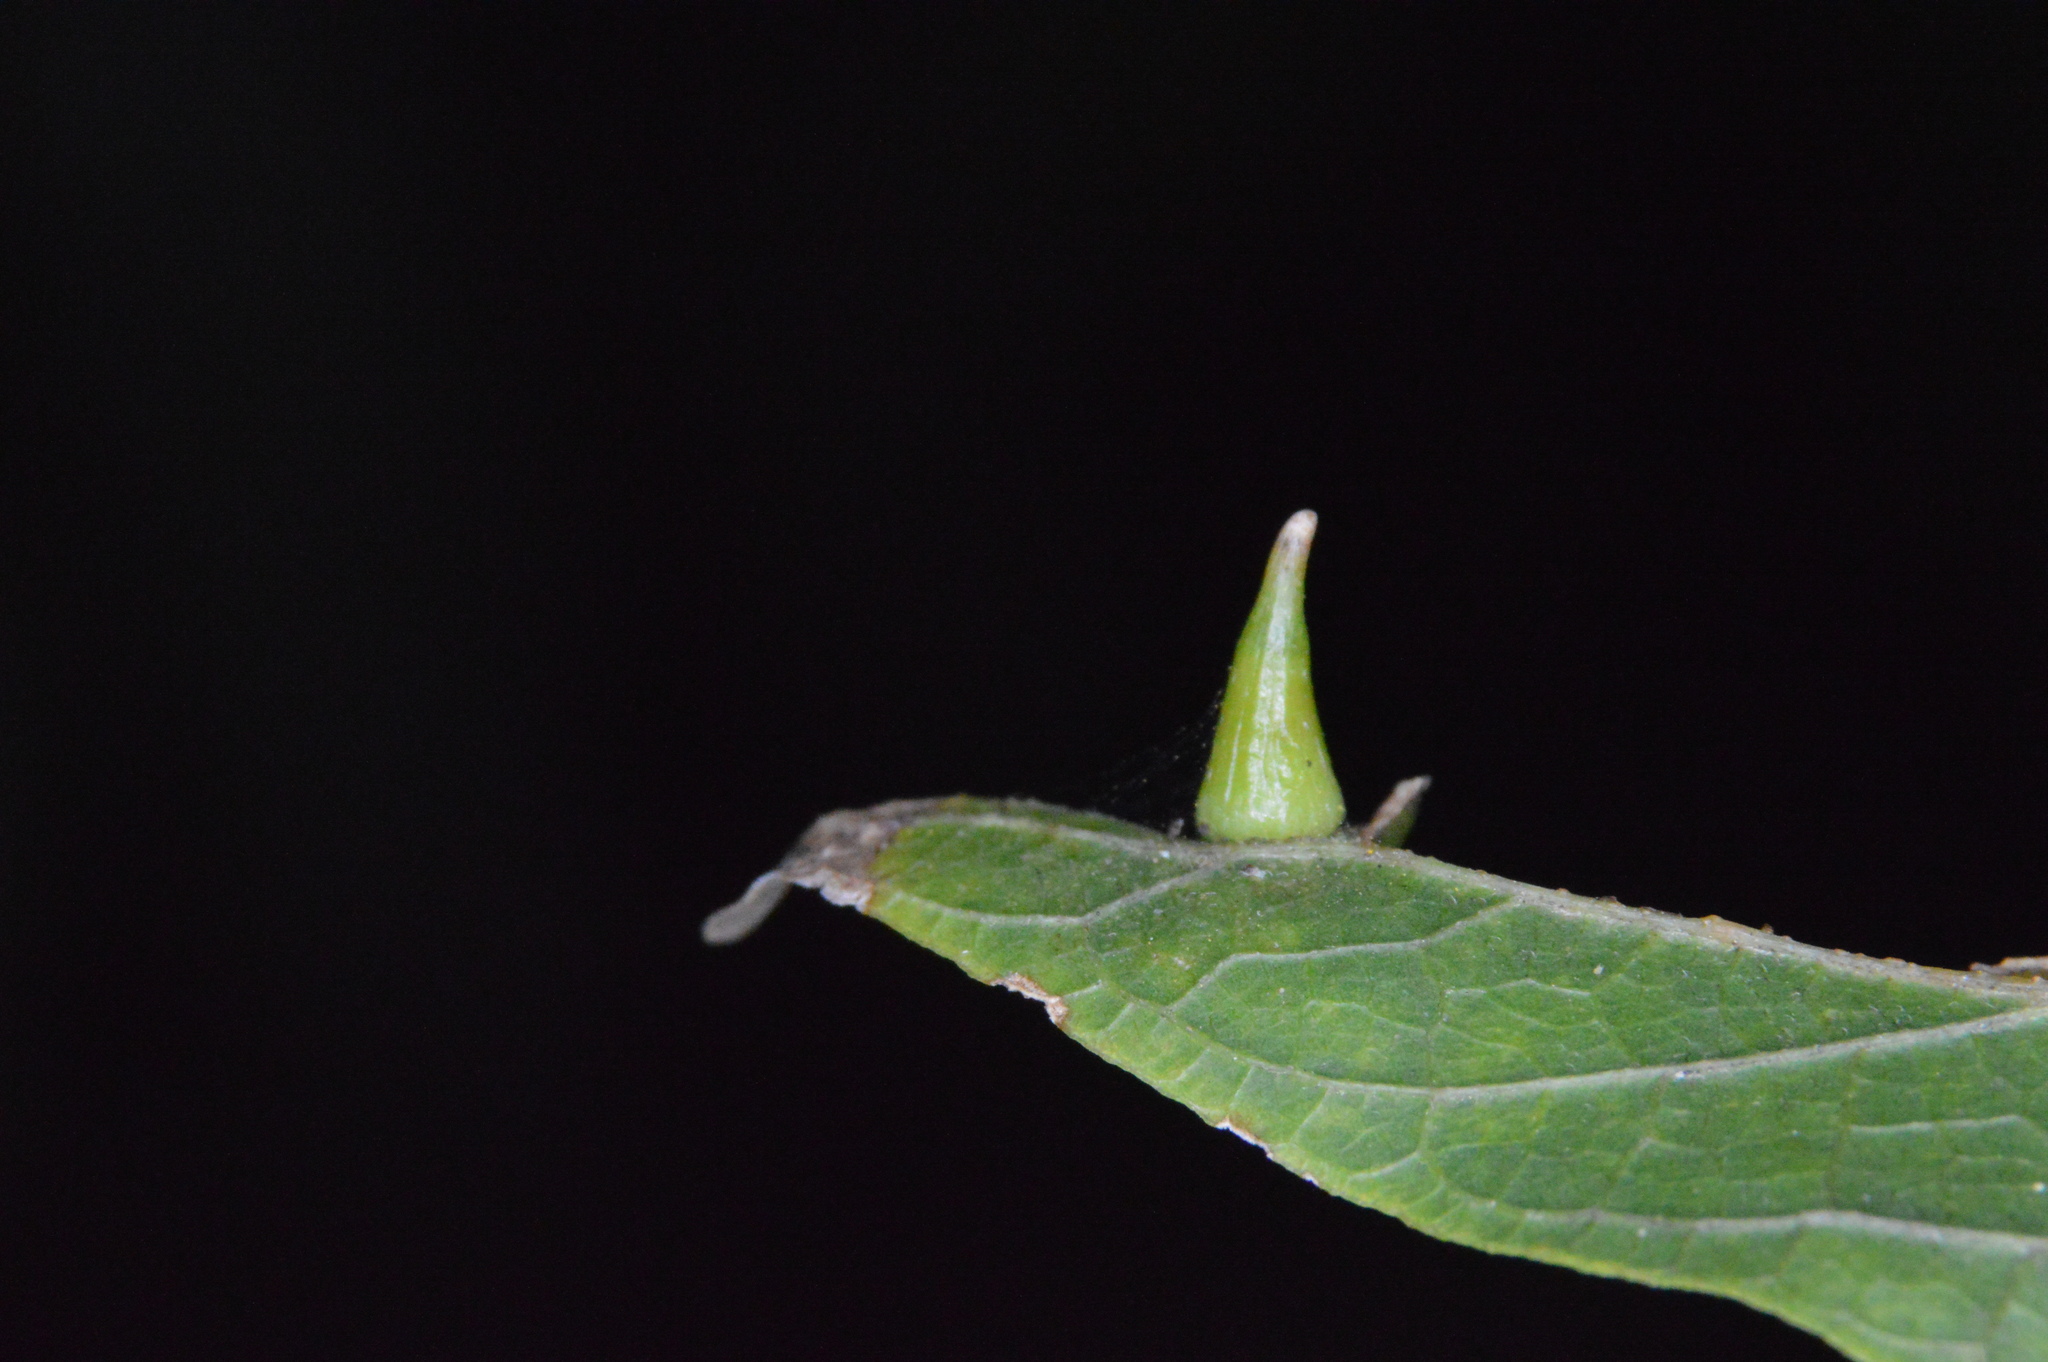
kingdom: Animalia
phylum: Arthropoda
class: Insecta
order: Diptera
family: Cecidomyiidae
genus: Celticecis
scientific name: Celticecis subulata
